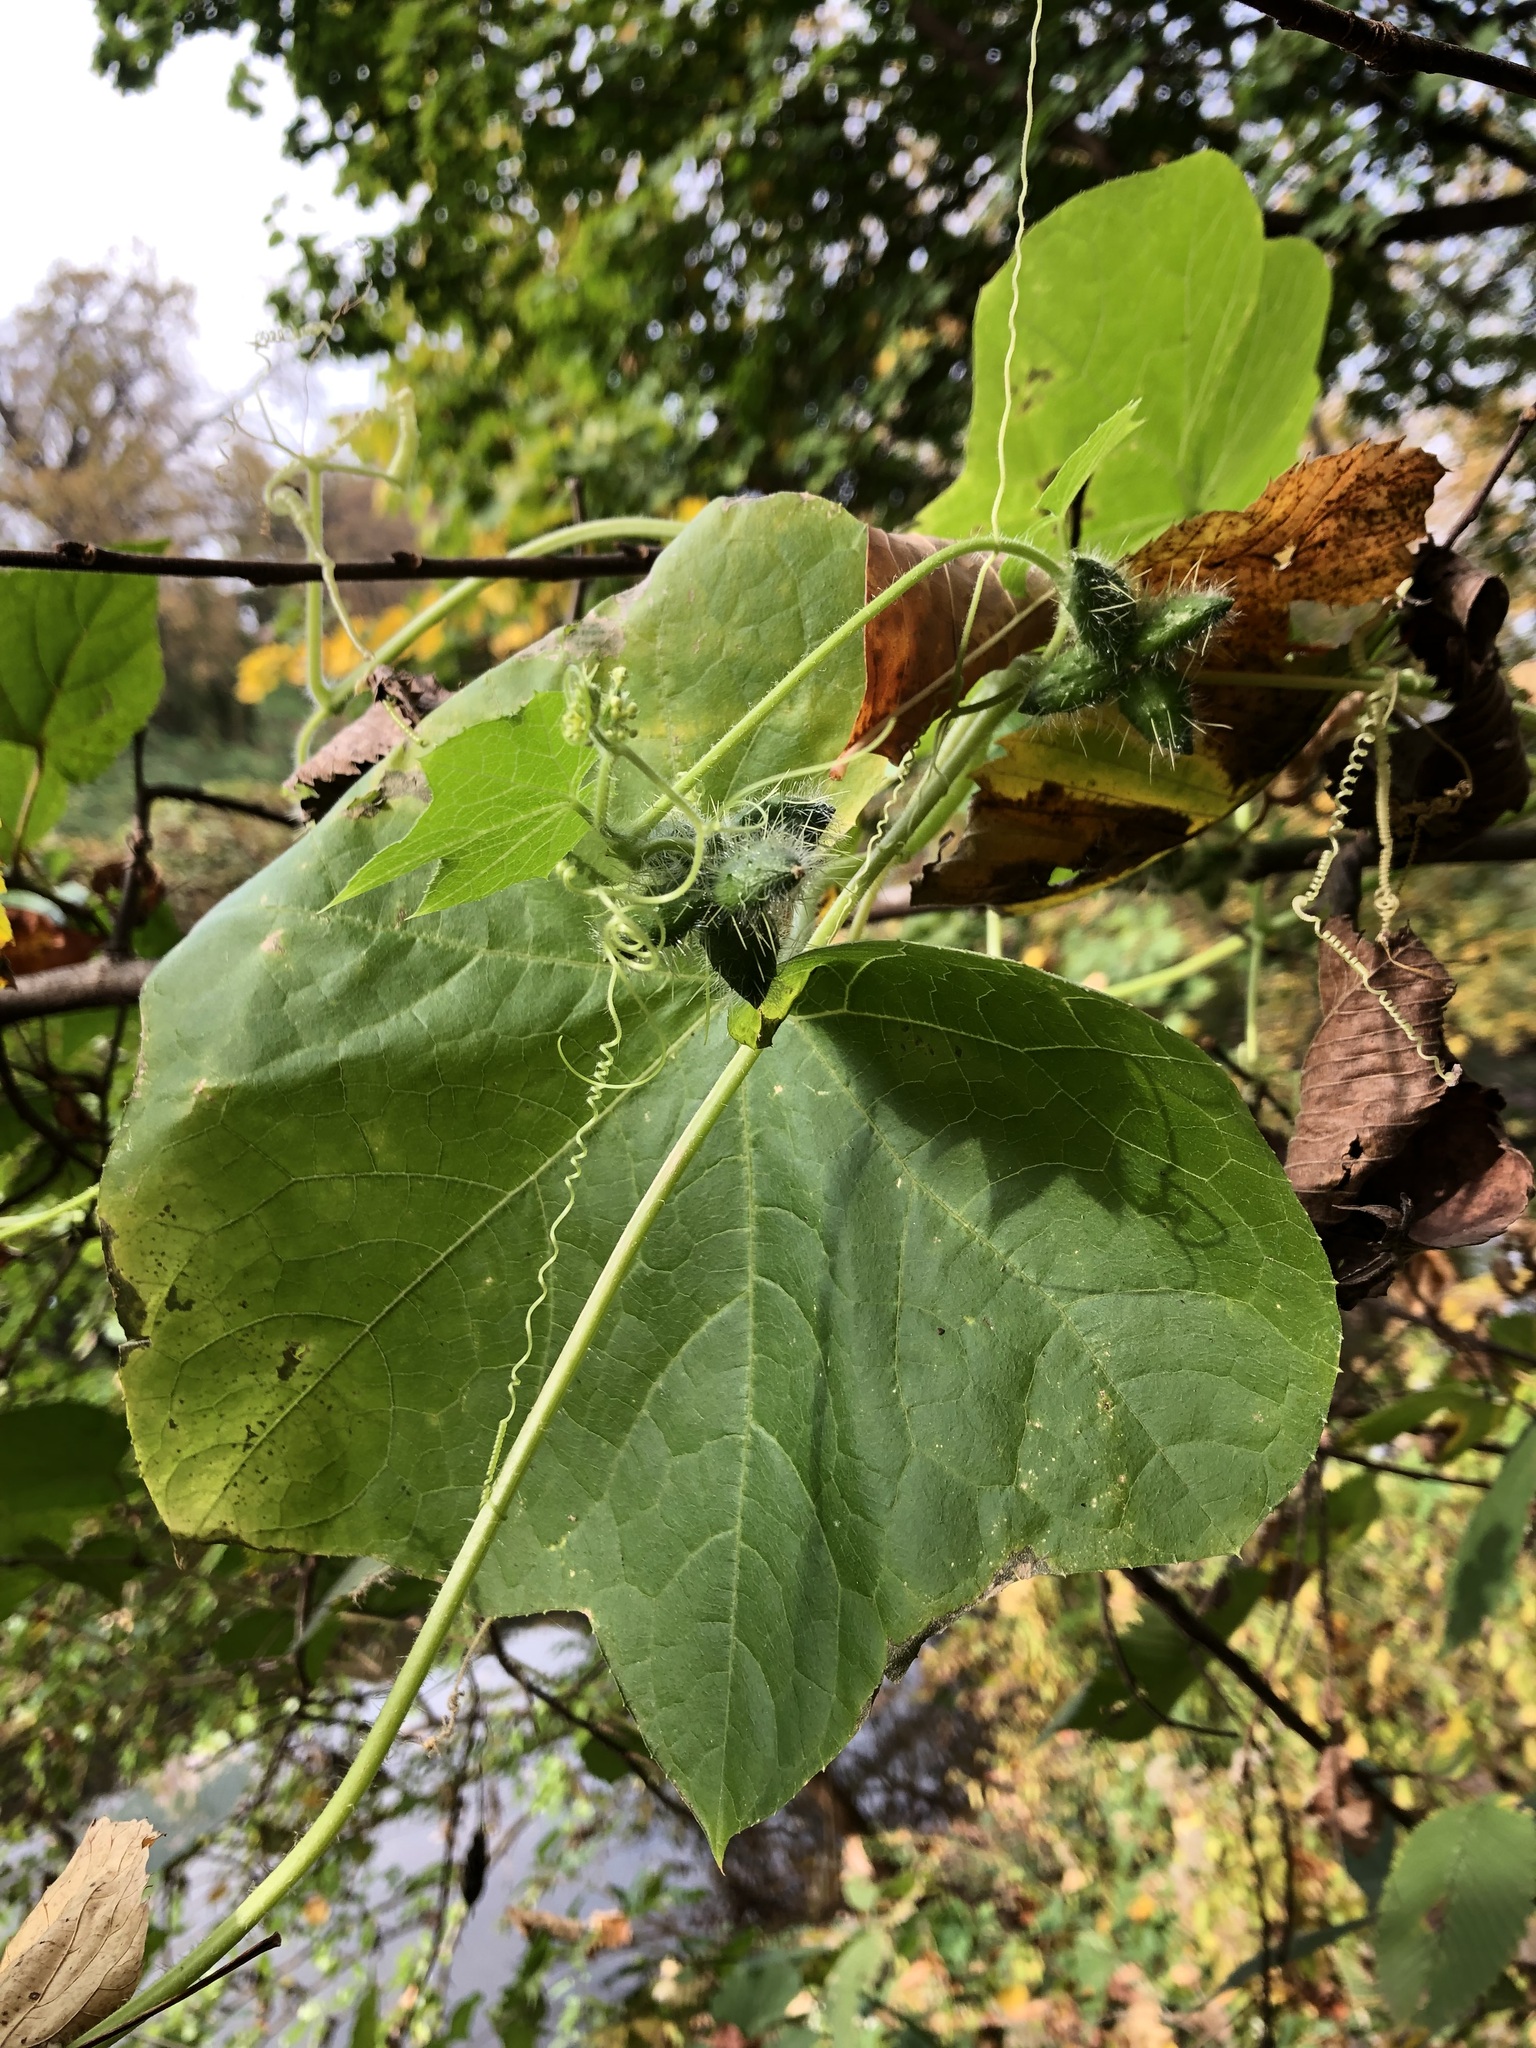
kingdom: Plantae
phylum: Tracheophyta
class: Magnoliopsida
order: Cucurbitales
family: Cucurbitaceae
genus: Sicyos
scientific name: Sicyos angulatus
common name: Angled burr cucumber
